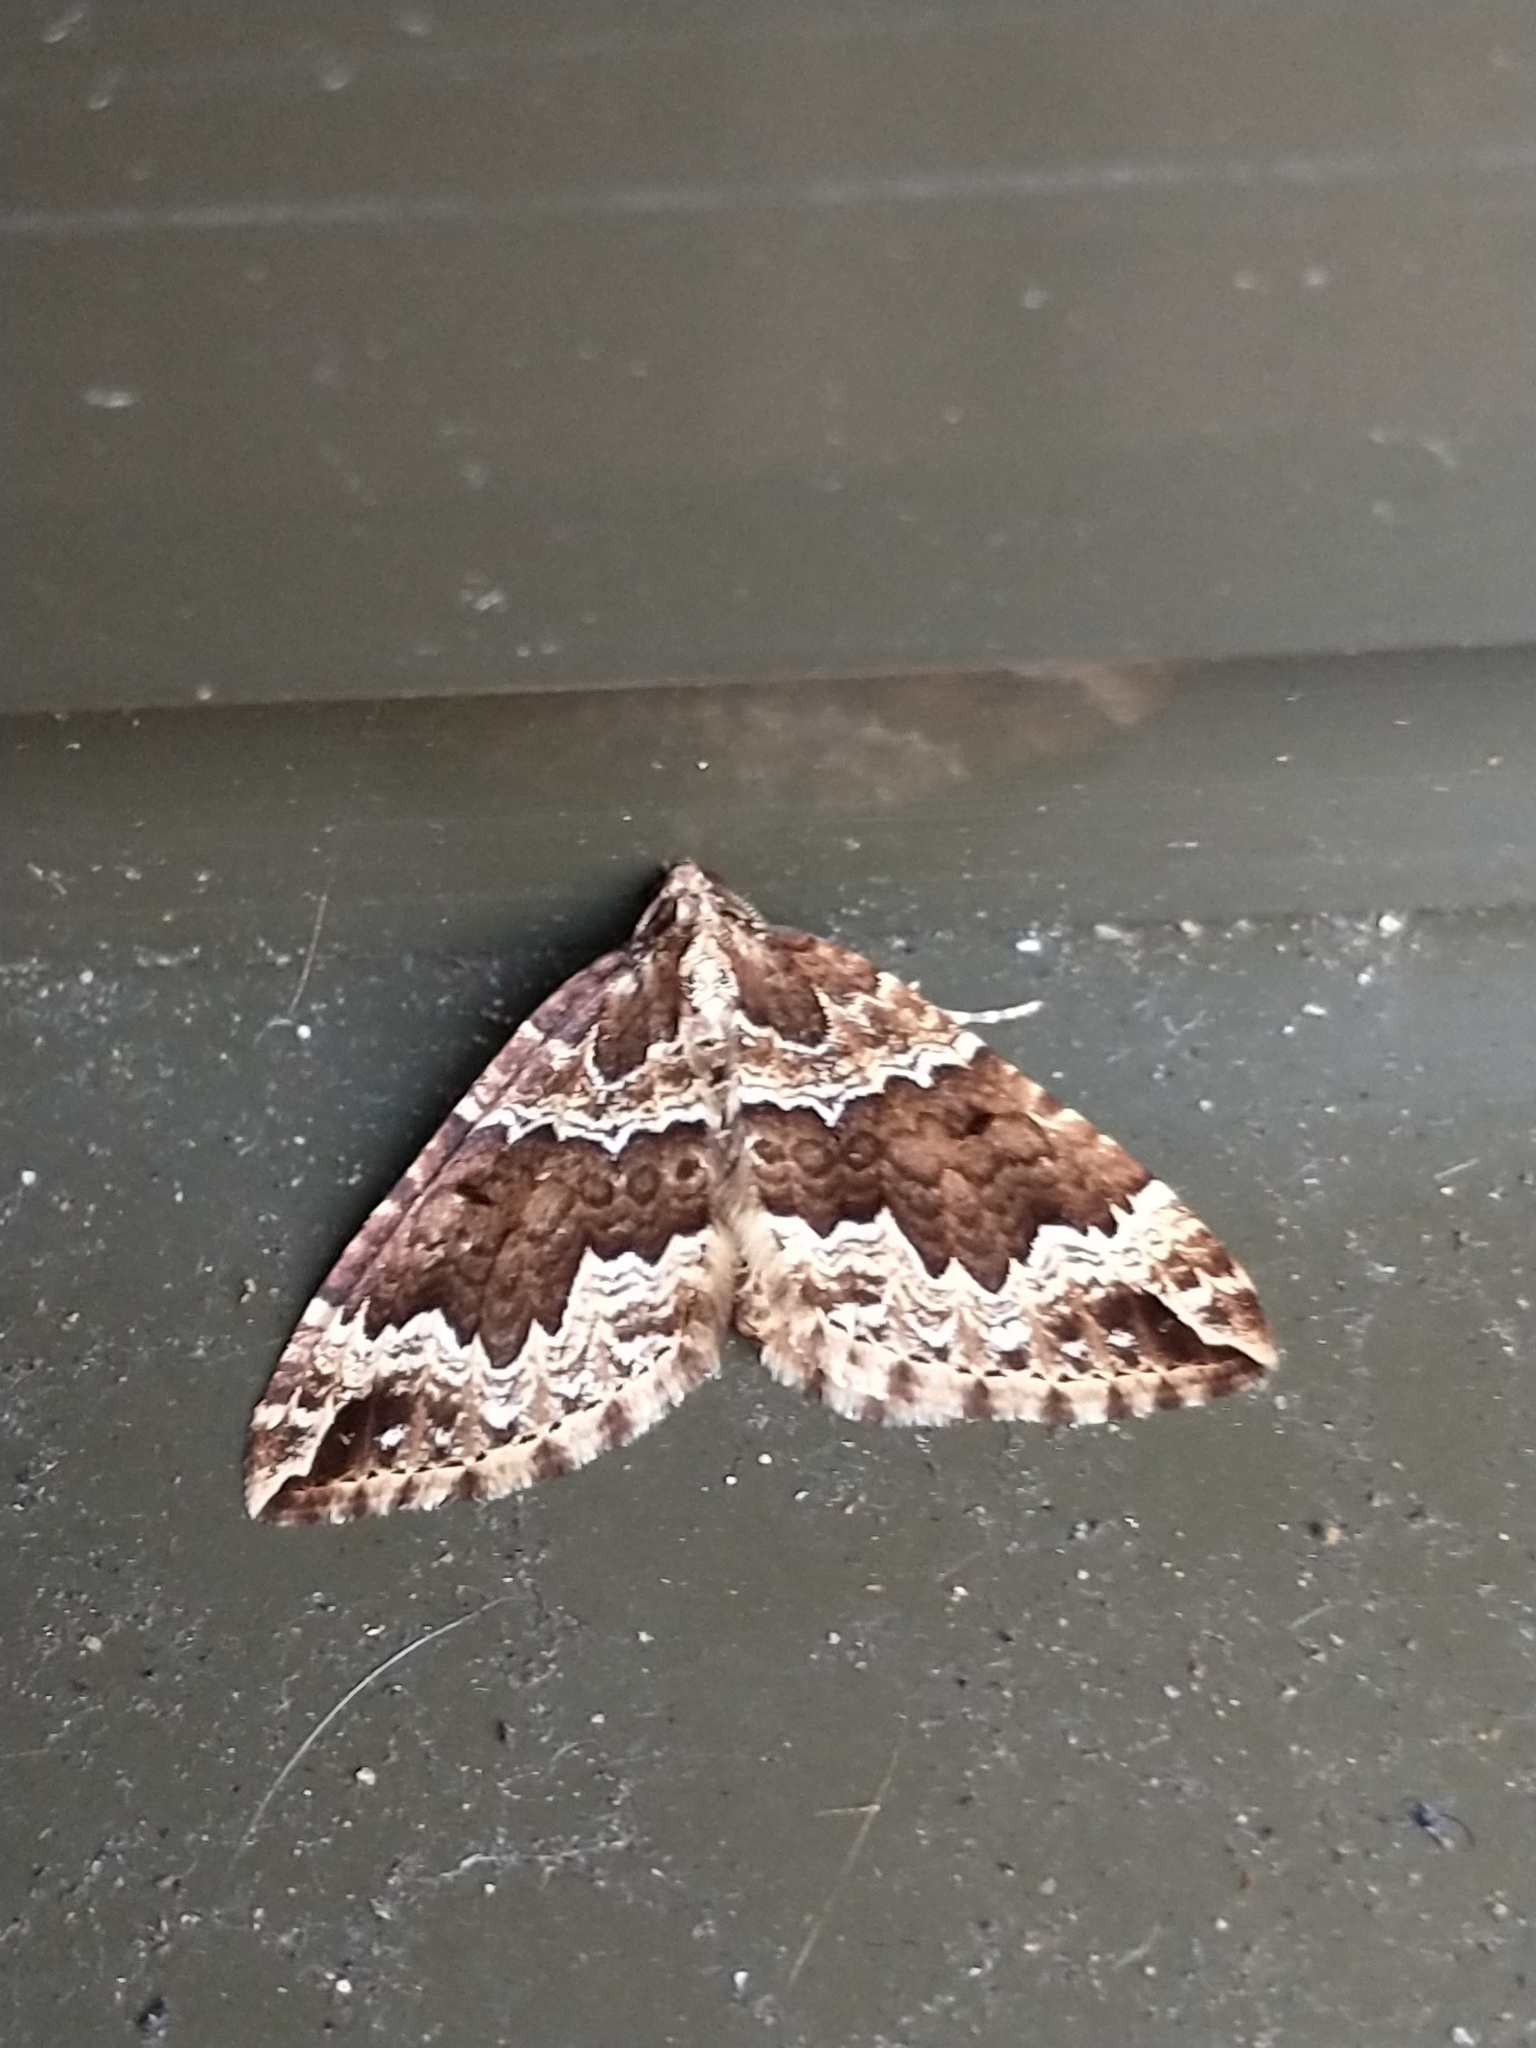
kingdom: Animalia
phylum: Arthropoda
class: Insecta
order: Lepidoptera
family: Geometridae
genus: Lampropteryx
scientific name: Lampropteryx suffumata
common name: Water carpet
